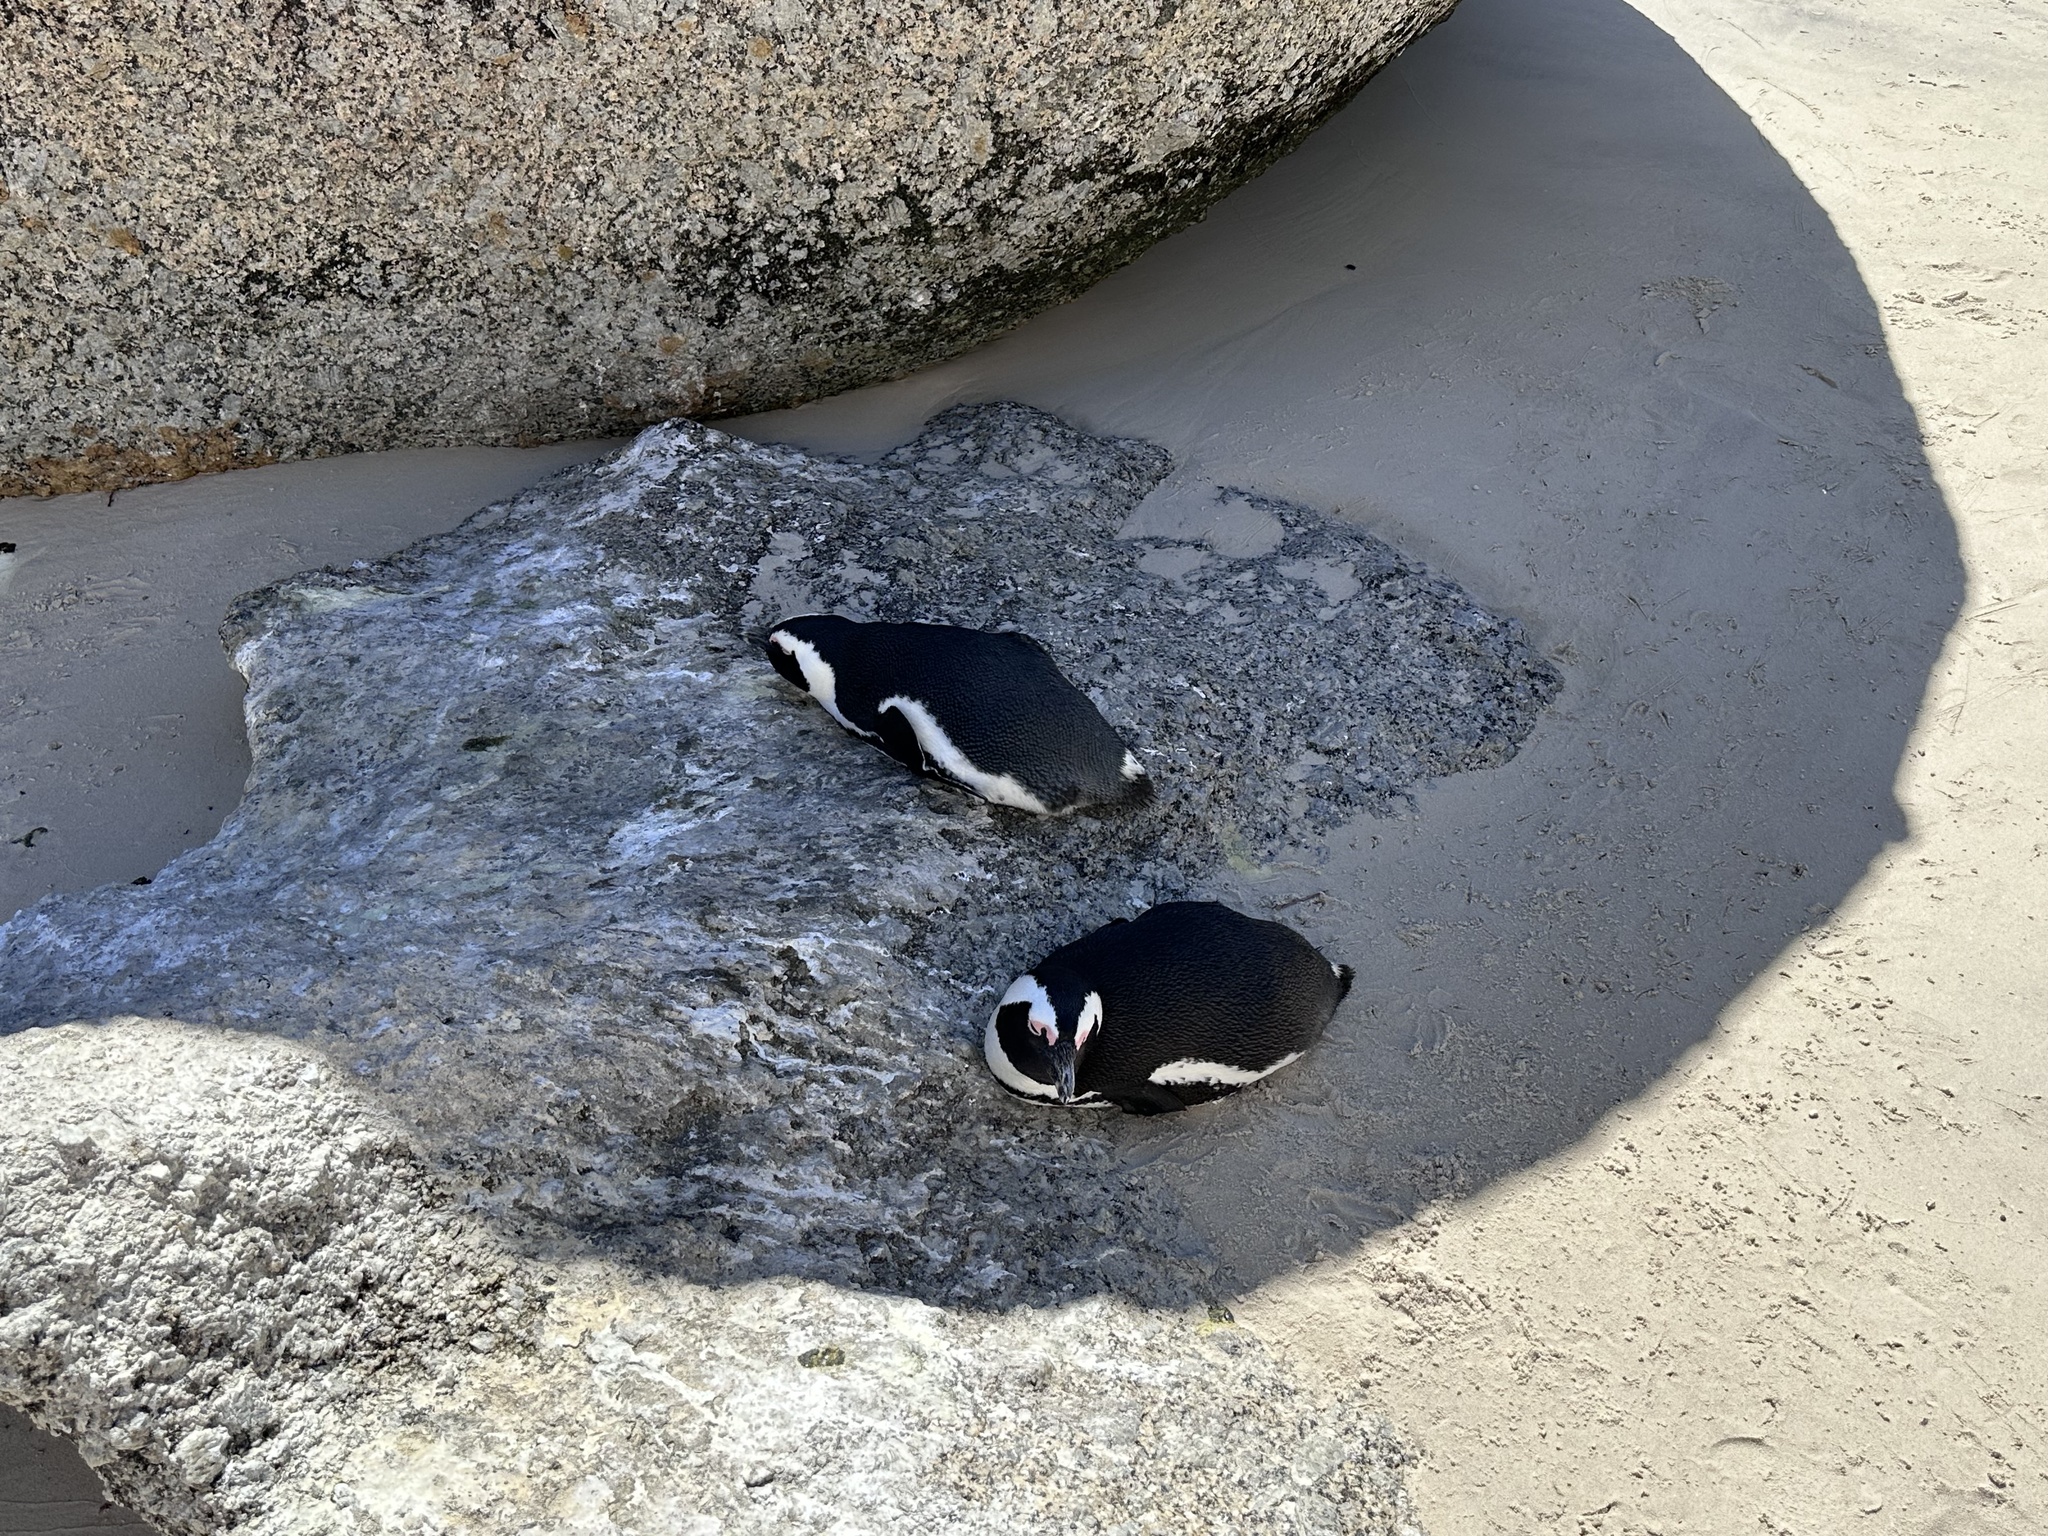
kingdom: Animalia
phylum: Chordata
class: Aves
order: Sphenisciformes
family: Spheniscidae
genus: Spheniscus
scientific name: Spheniscus demersus
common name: African penguin
